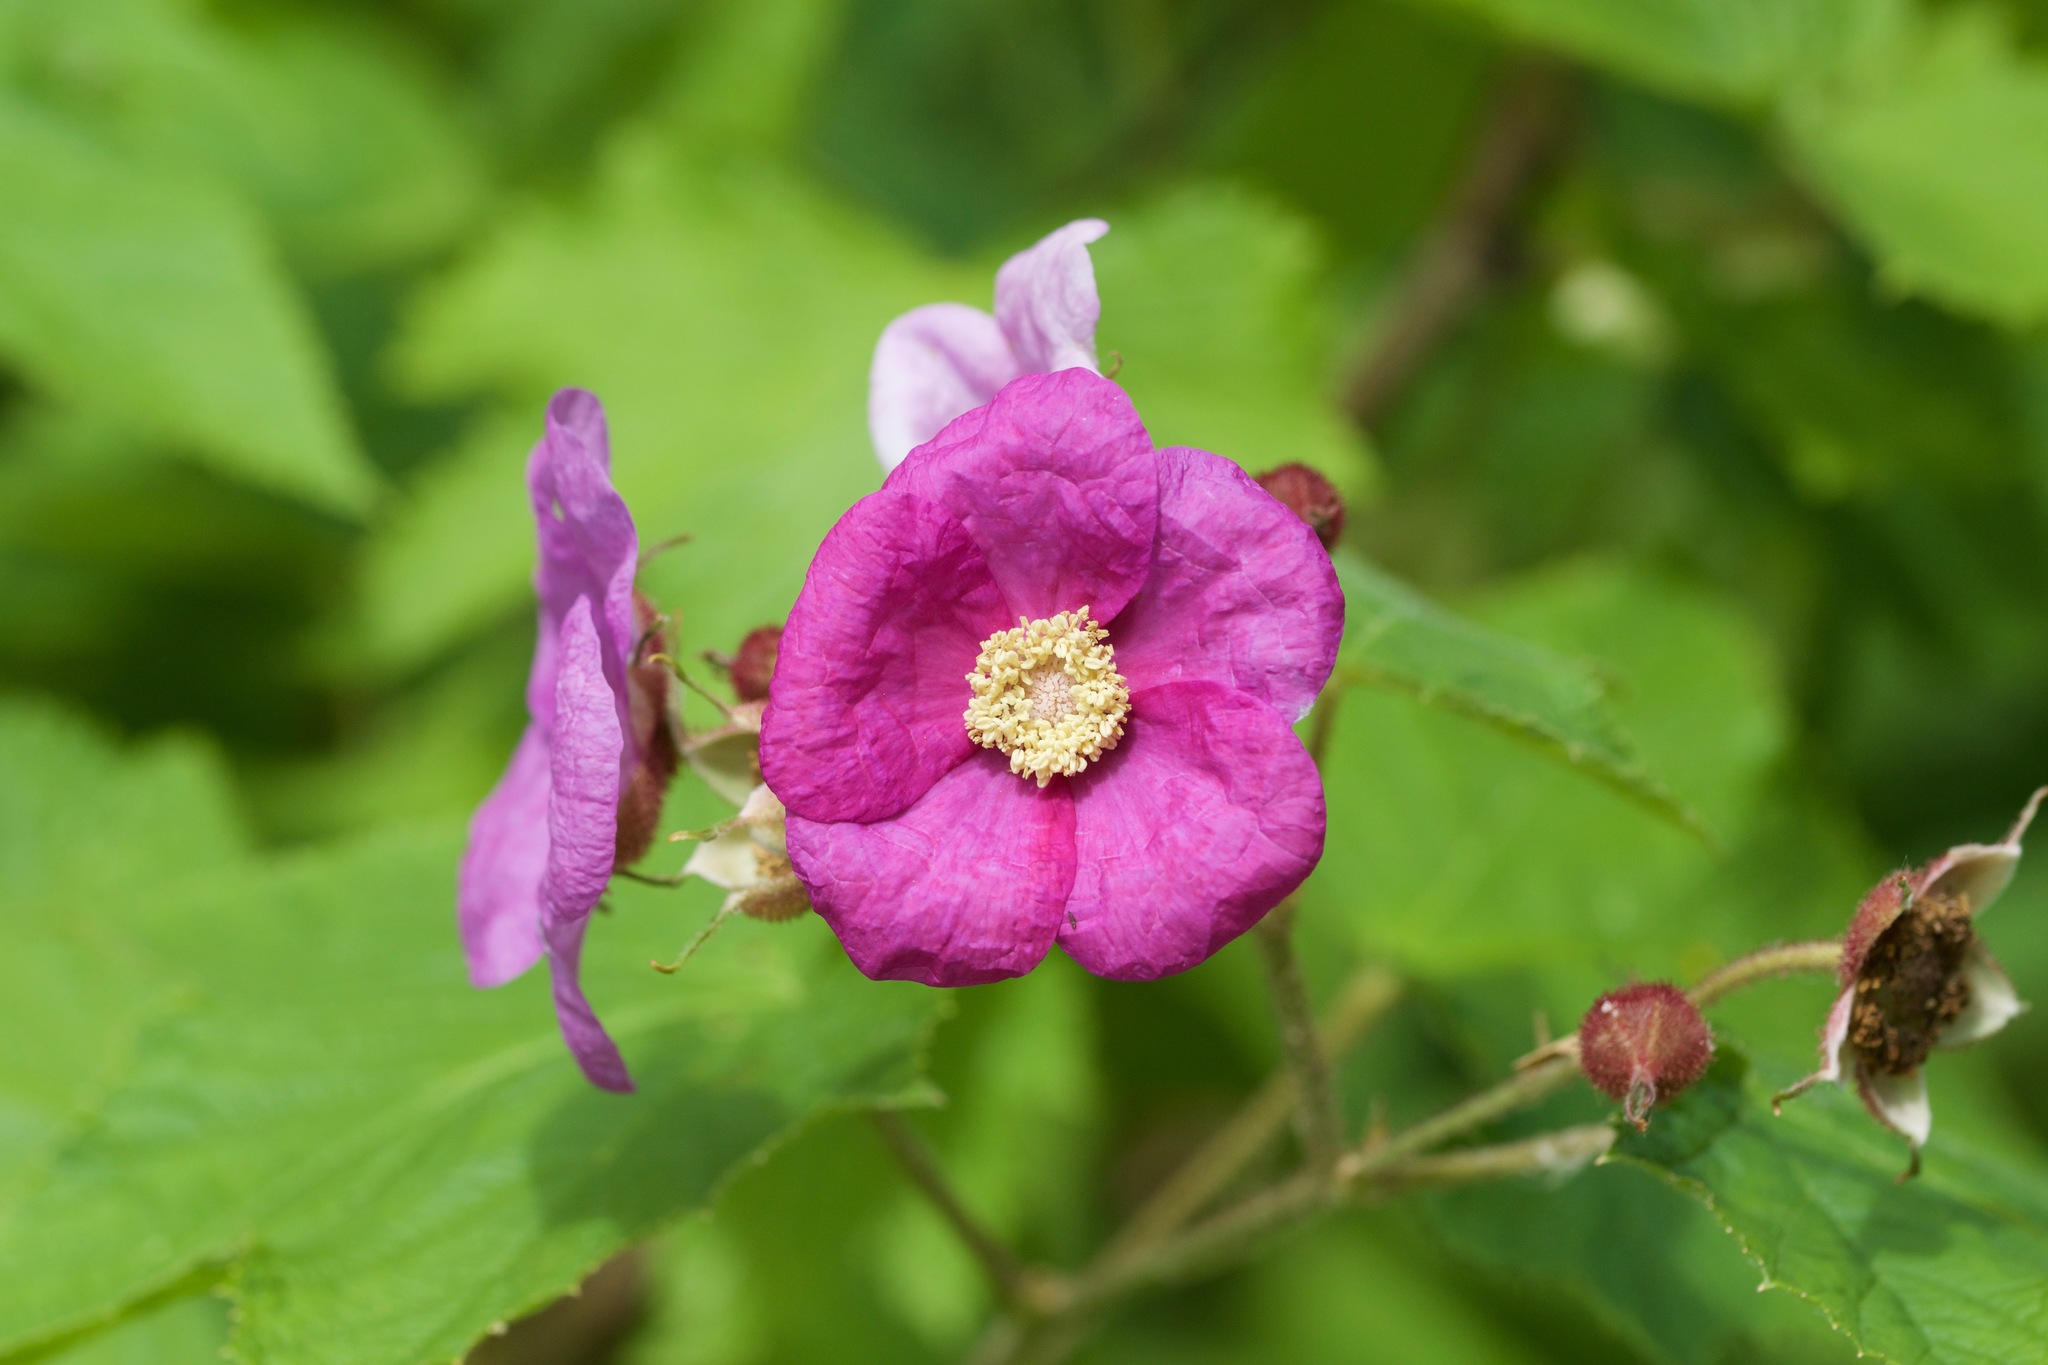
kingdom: Plantae
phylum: Tracheophyta
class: Magnoliopsida
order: Rosales
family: Rosaceae
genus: Rubus
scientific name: Rubus odoratus
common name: Purple-flowered raspberry
